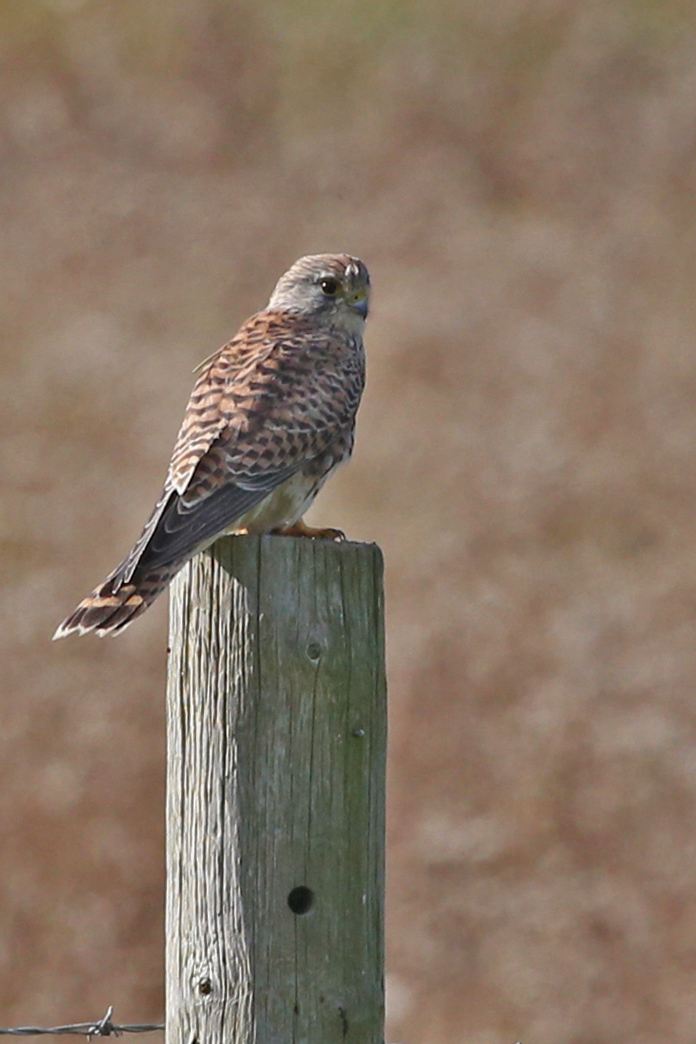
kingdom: Animalia
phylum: Chordata
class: Aves
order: Falconiformes
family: Falconidae
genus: Falco
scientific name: Falco tinnunculus
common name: Common kestrel
